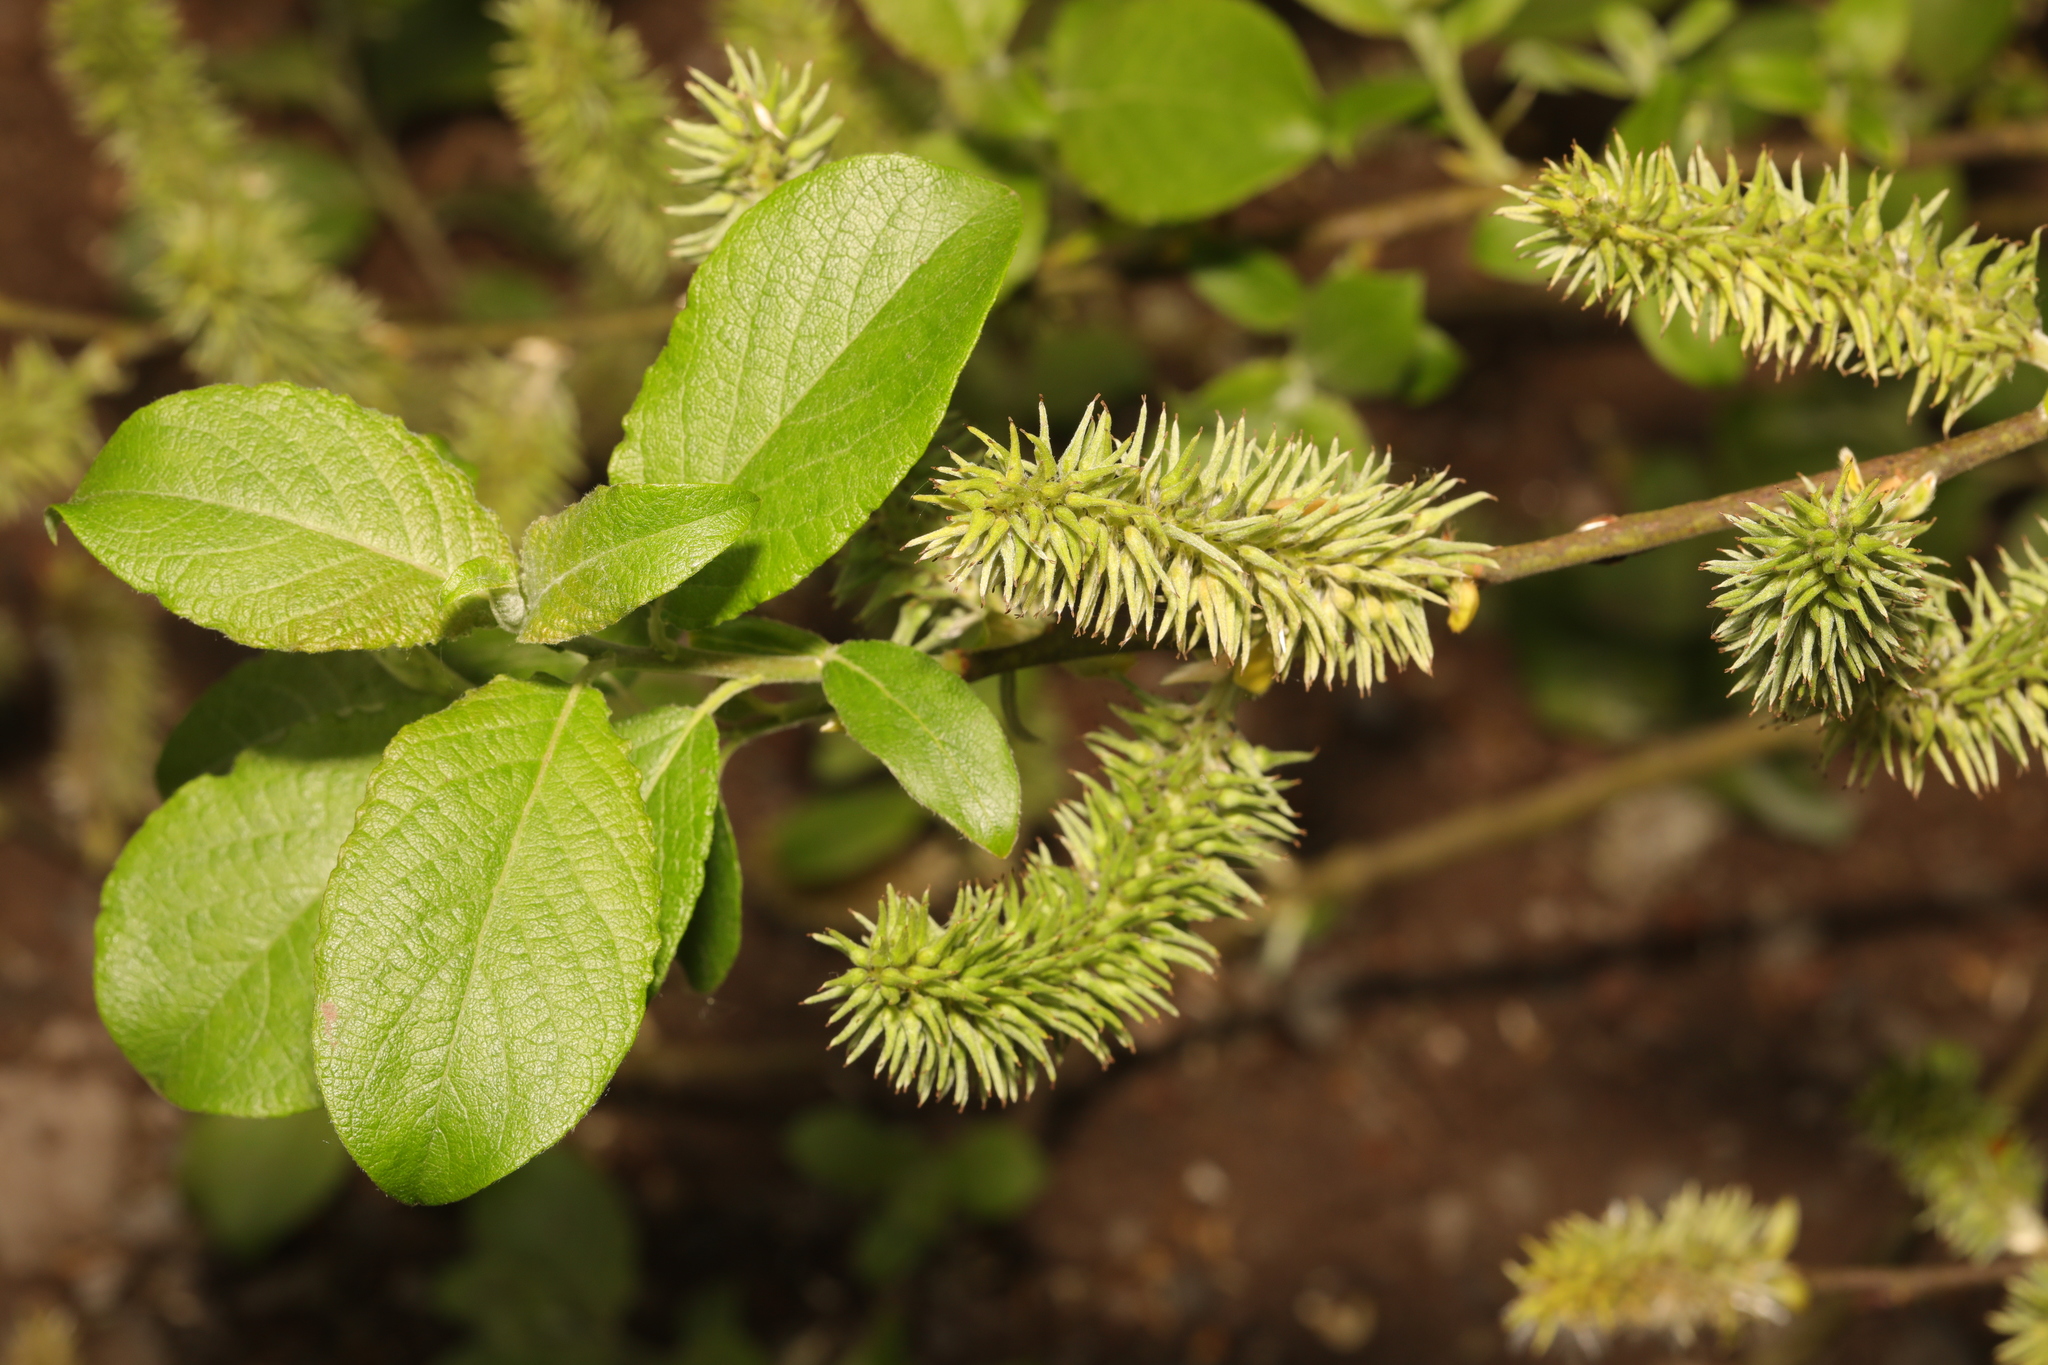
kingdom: Plantae
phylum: Tracheophyta
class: Magnoliopsida
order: Malpighiales
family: Salicaceae
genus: Salix
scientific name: Salix caprea
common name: Goat willow
